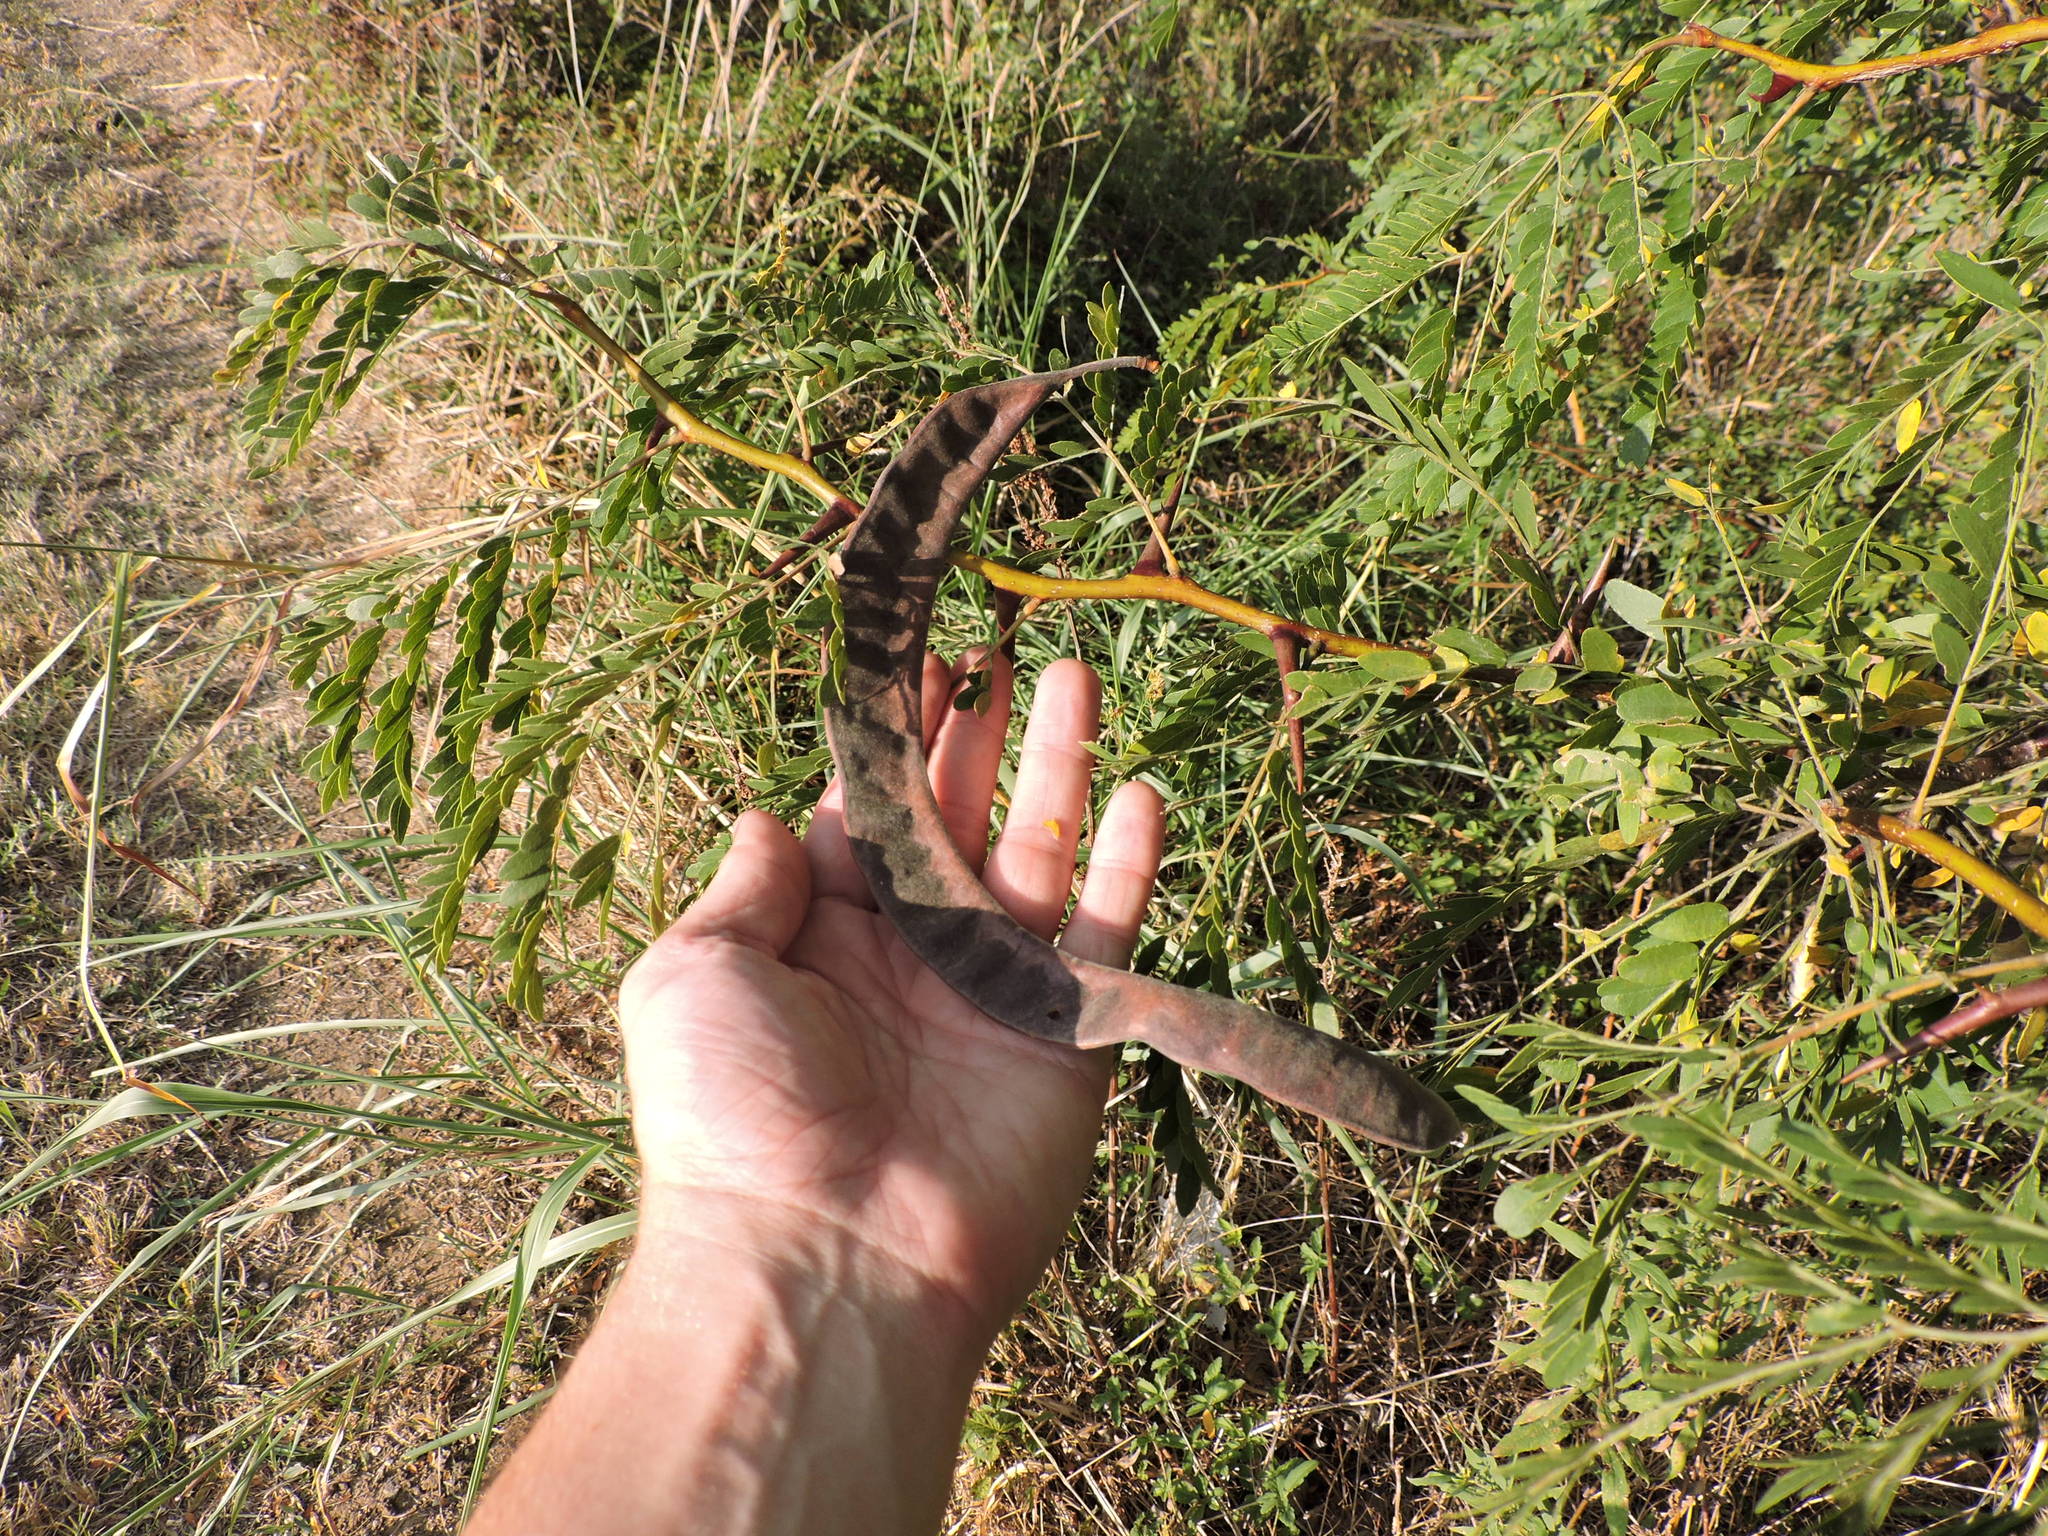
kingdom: Plantae
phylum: Tracheophyta
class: Magnoliopsida
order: Fabales
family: Fabaceae
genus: Gleditsia
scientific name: Gleditsia triacanthos
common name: Common honeylocust
